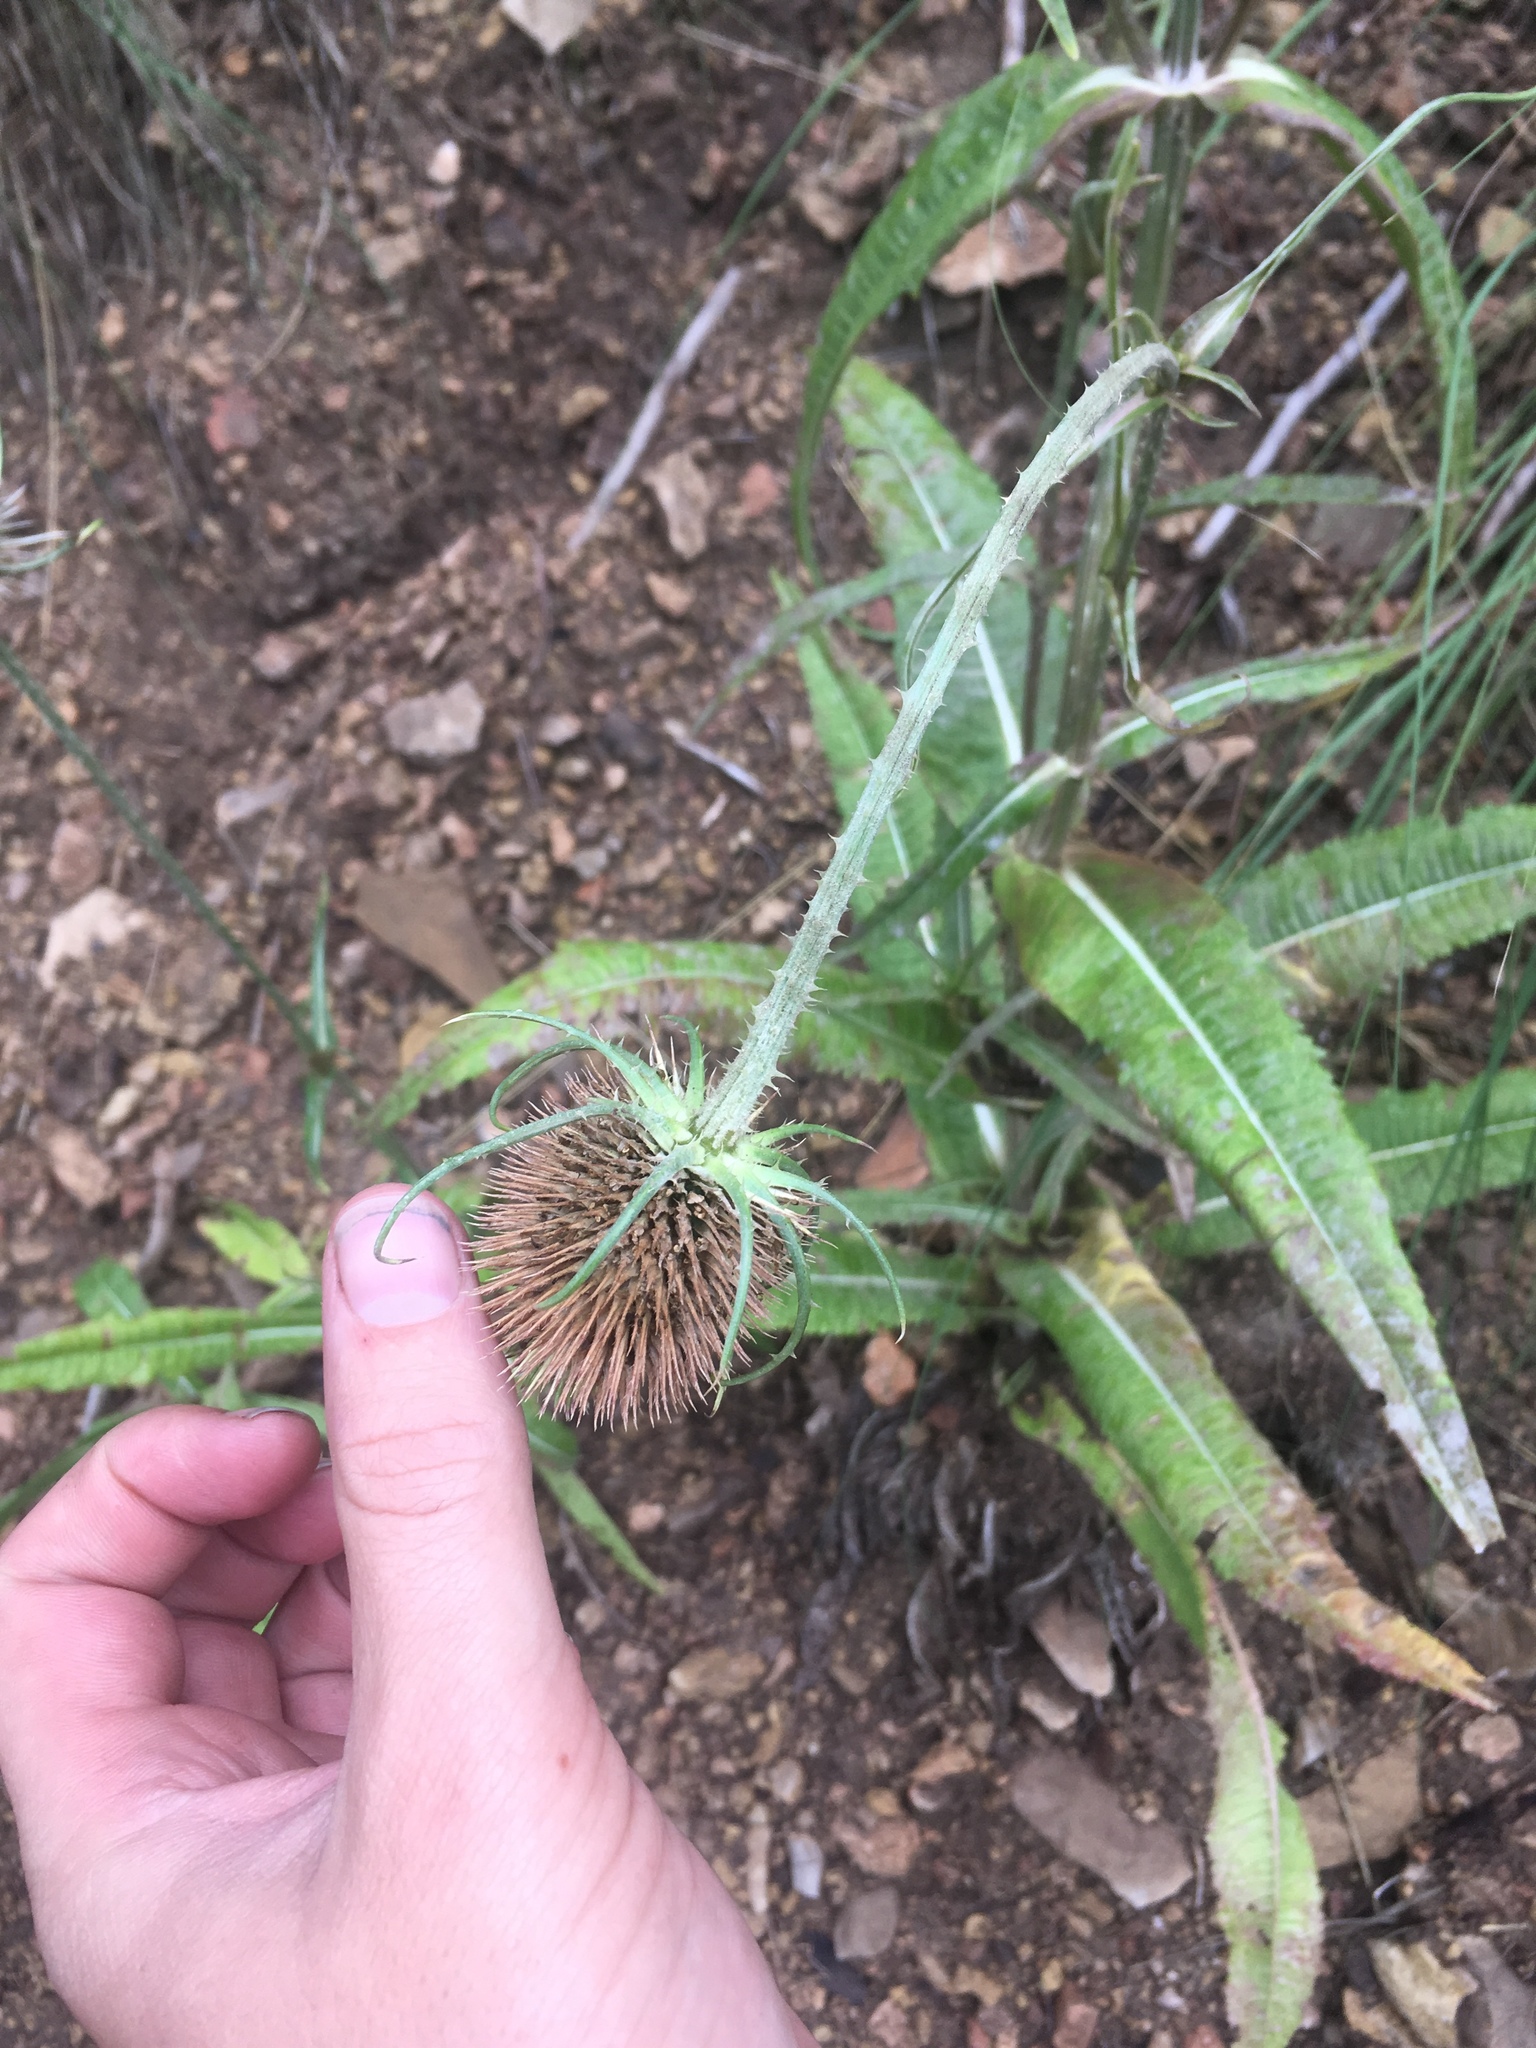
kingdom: Plantae
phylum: Tracheophyta
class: Magnoliopsida
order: Dipsacales
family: Caprifoliaceae
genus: Dipsacus
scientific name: Dipsacus fullonum
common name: Teasel
